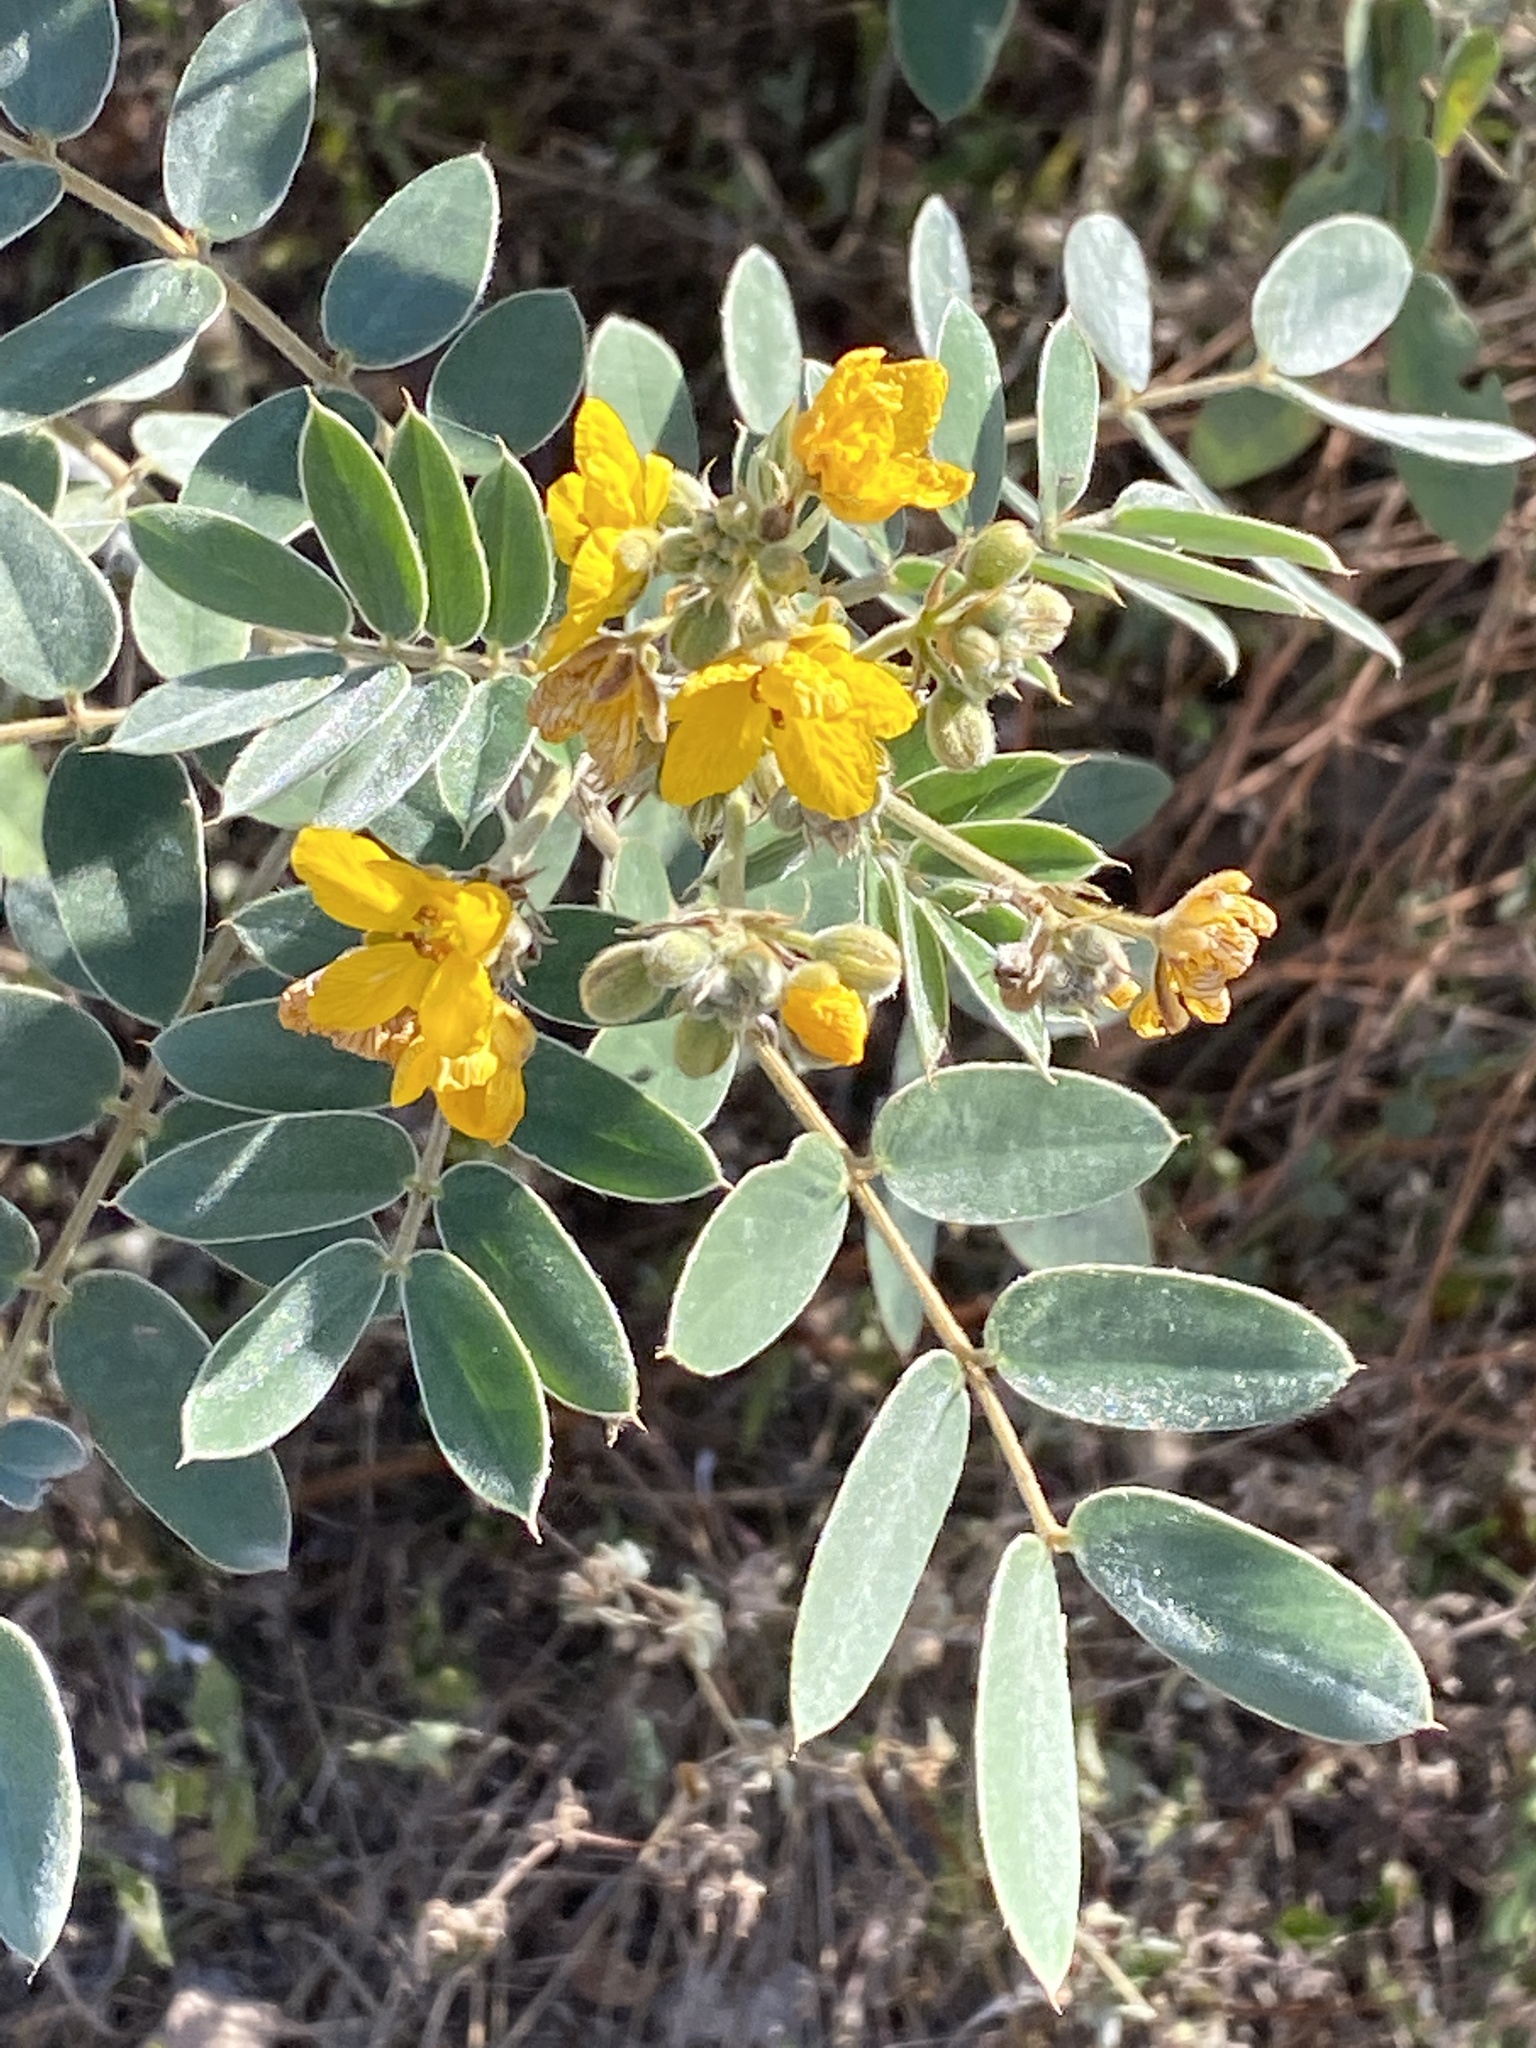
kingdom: Plantae
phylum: Tracheophyta
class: Magnoliopsida
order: Fabales
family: Fabaceae
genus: Senna
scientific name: Senna lindheimeriana
